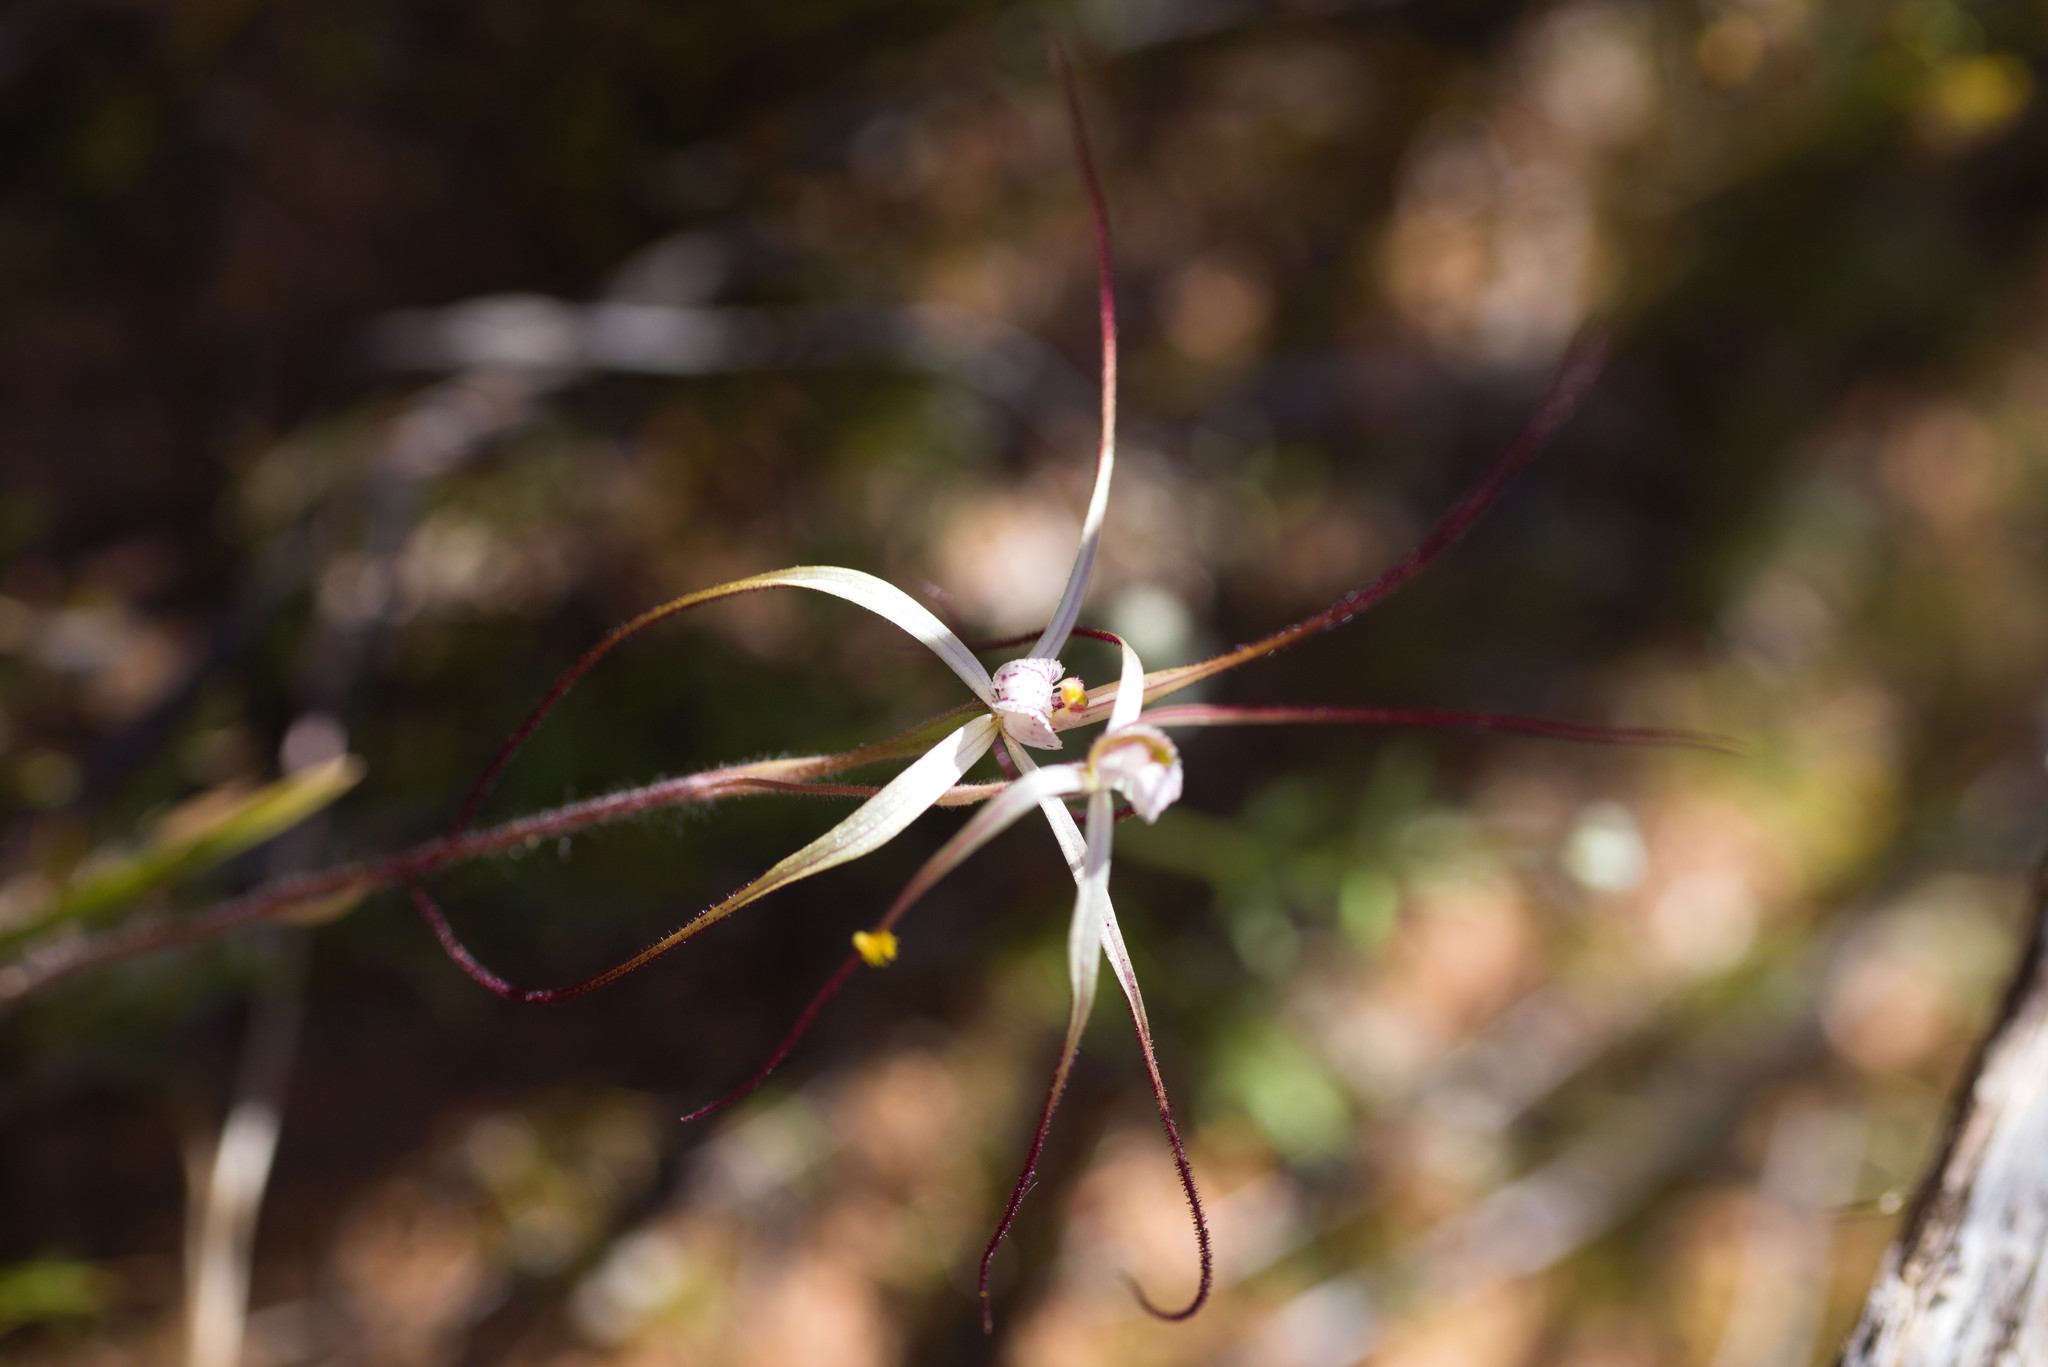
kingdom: Plantae
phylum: Tracheophyta
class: Liliopsida
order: Asparagales
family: Orchidaceae
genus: Caladenia
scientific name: Caladenia dimidia
